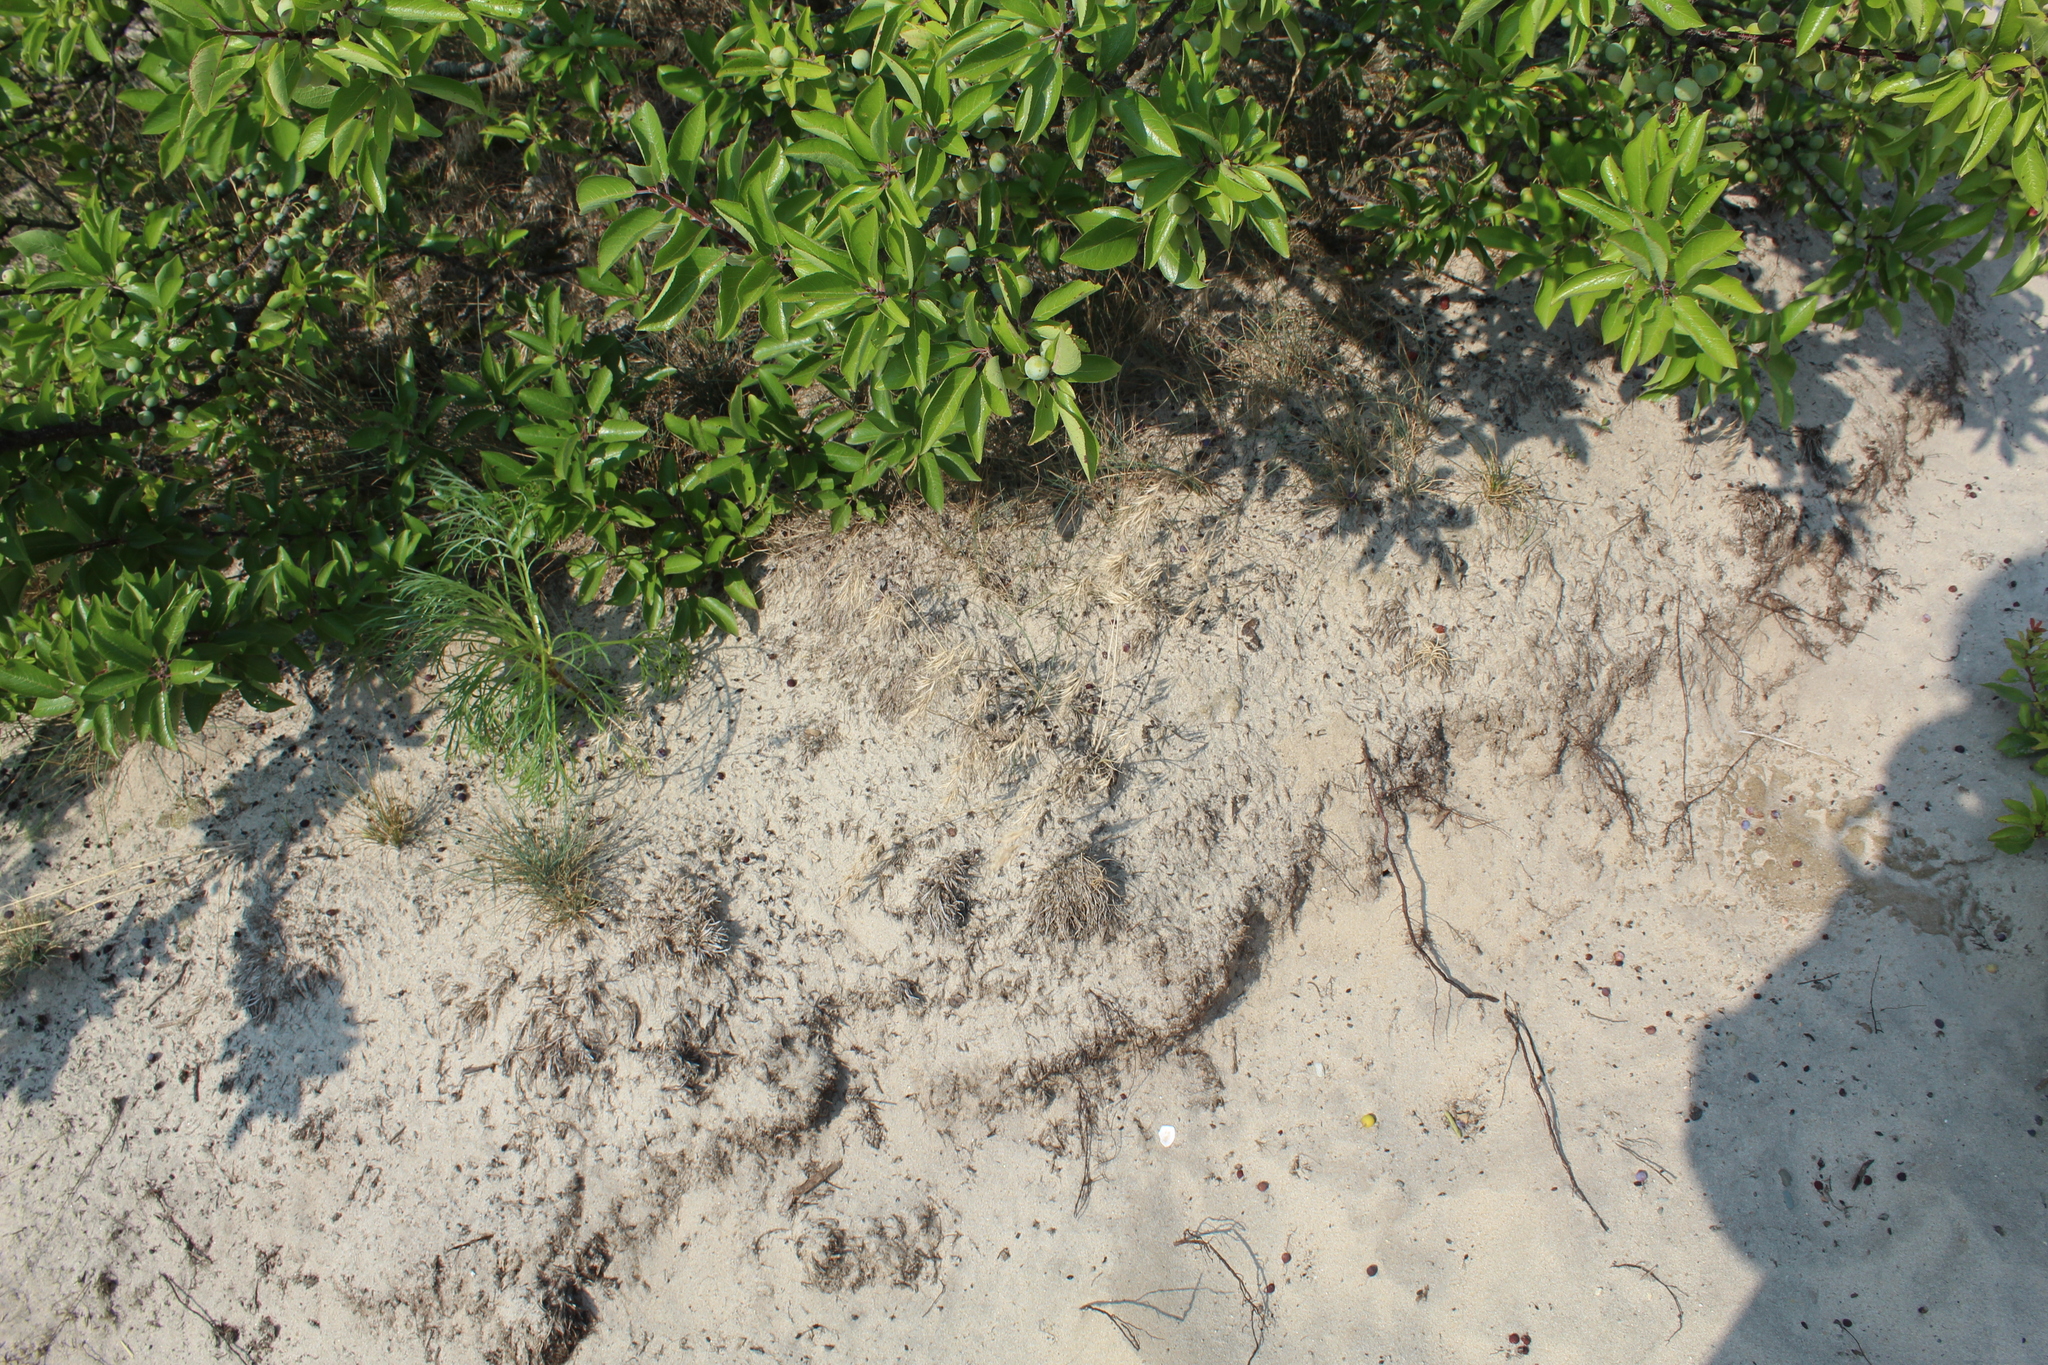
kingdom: Plantae
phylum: Tracheophyta
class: Liliopsida
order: Poales
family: Poaceae
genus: Bromus
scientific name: Bromus tectorum
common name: Cheatgrass
